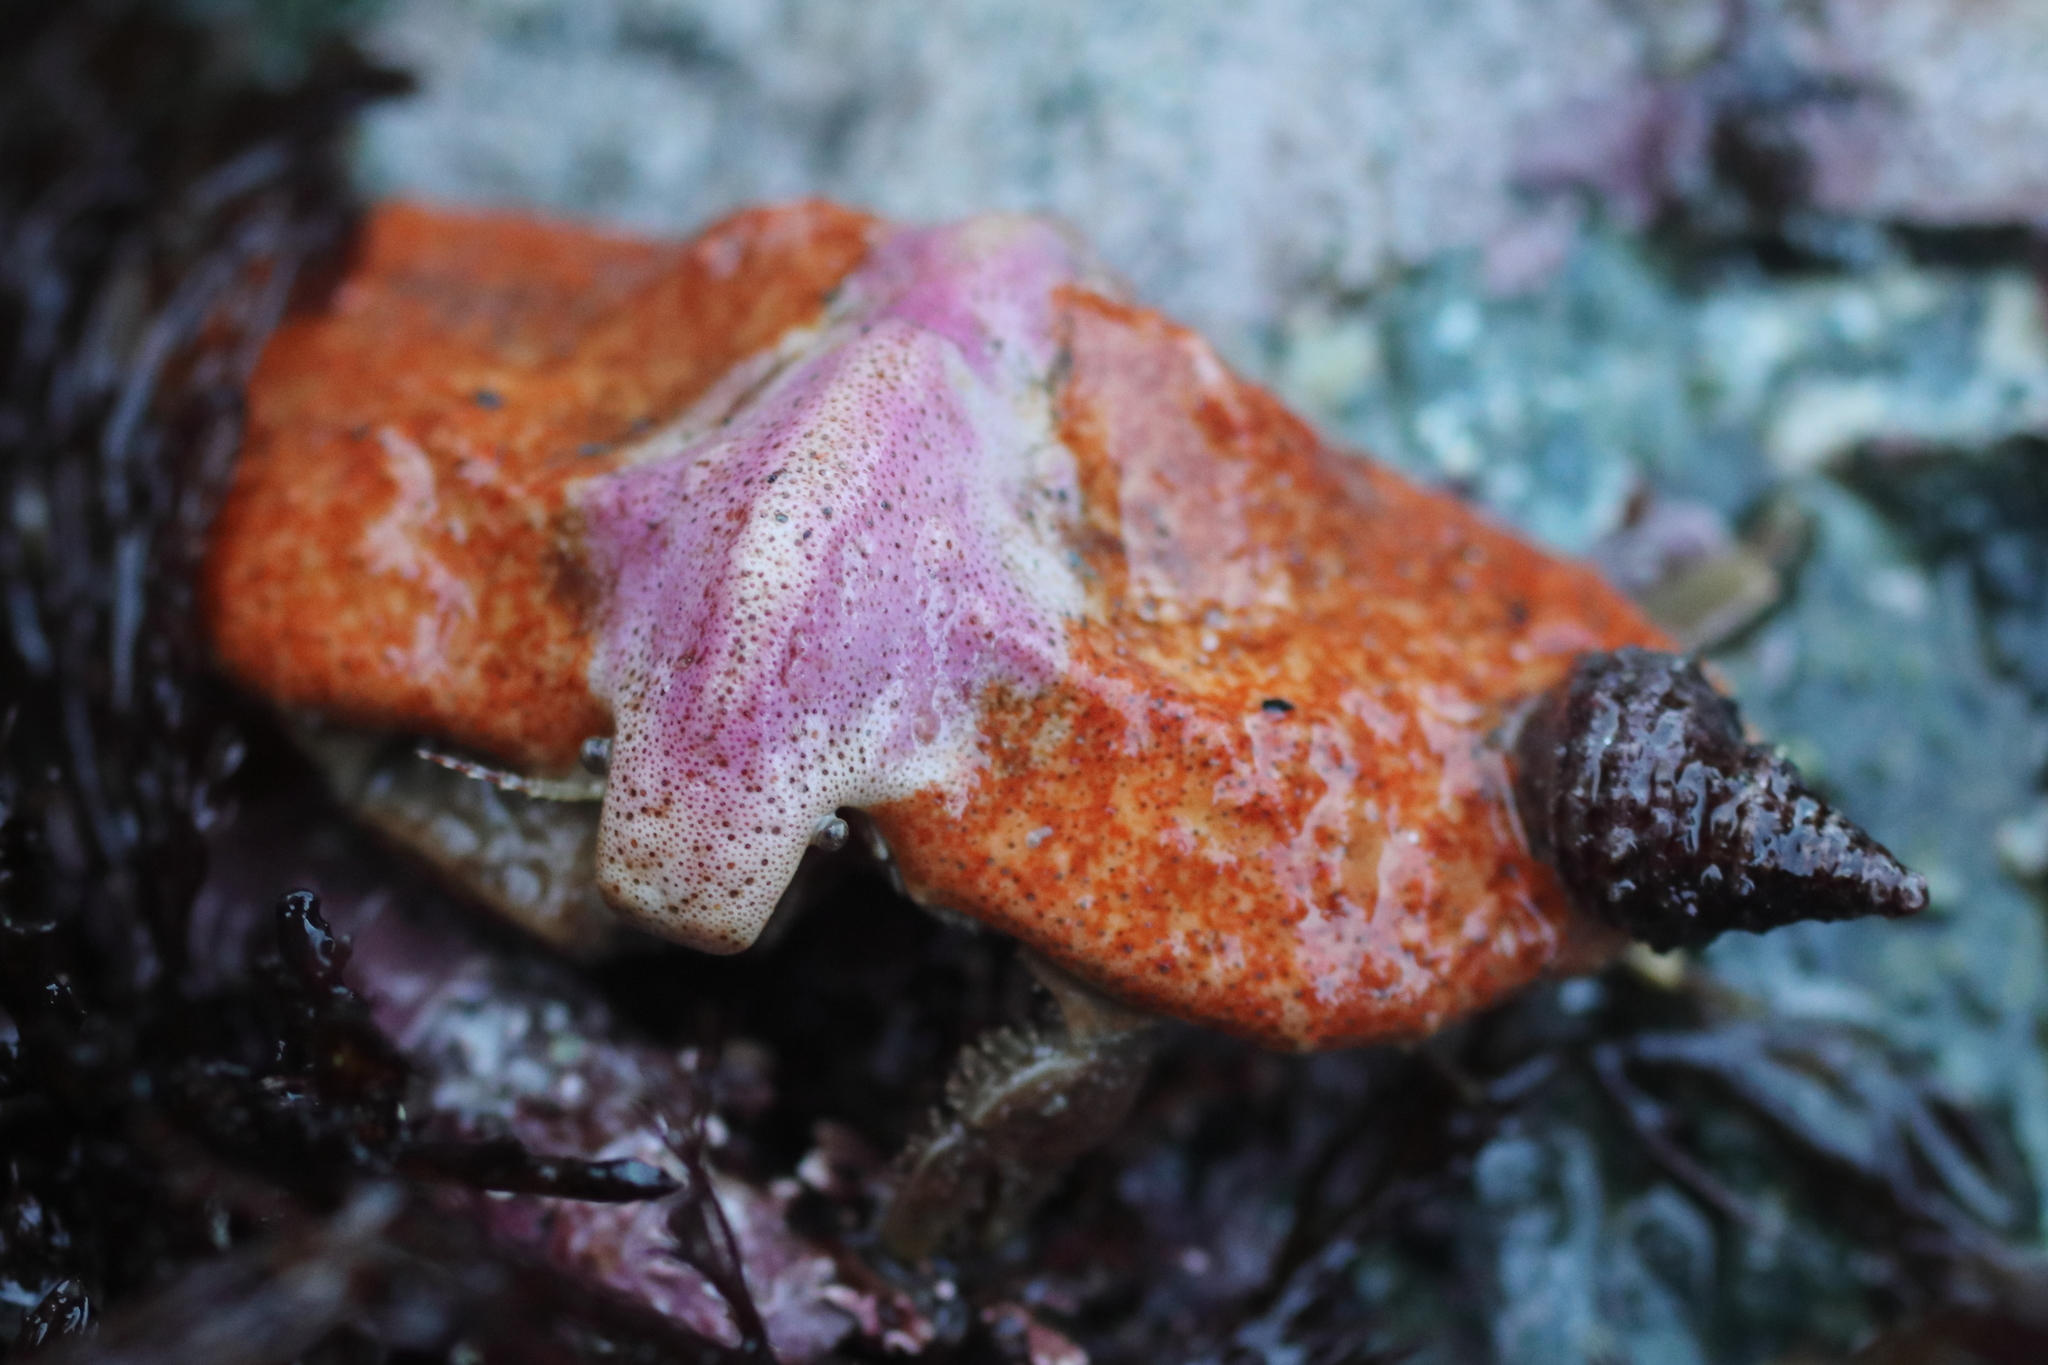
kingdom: Animalia
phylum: Arthropoda
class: Malacostraca
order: Decapoda
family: Lithodidae
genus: Cryptolithodes
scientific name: Cryptolithodes typicus
